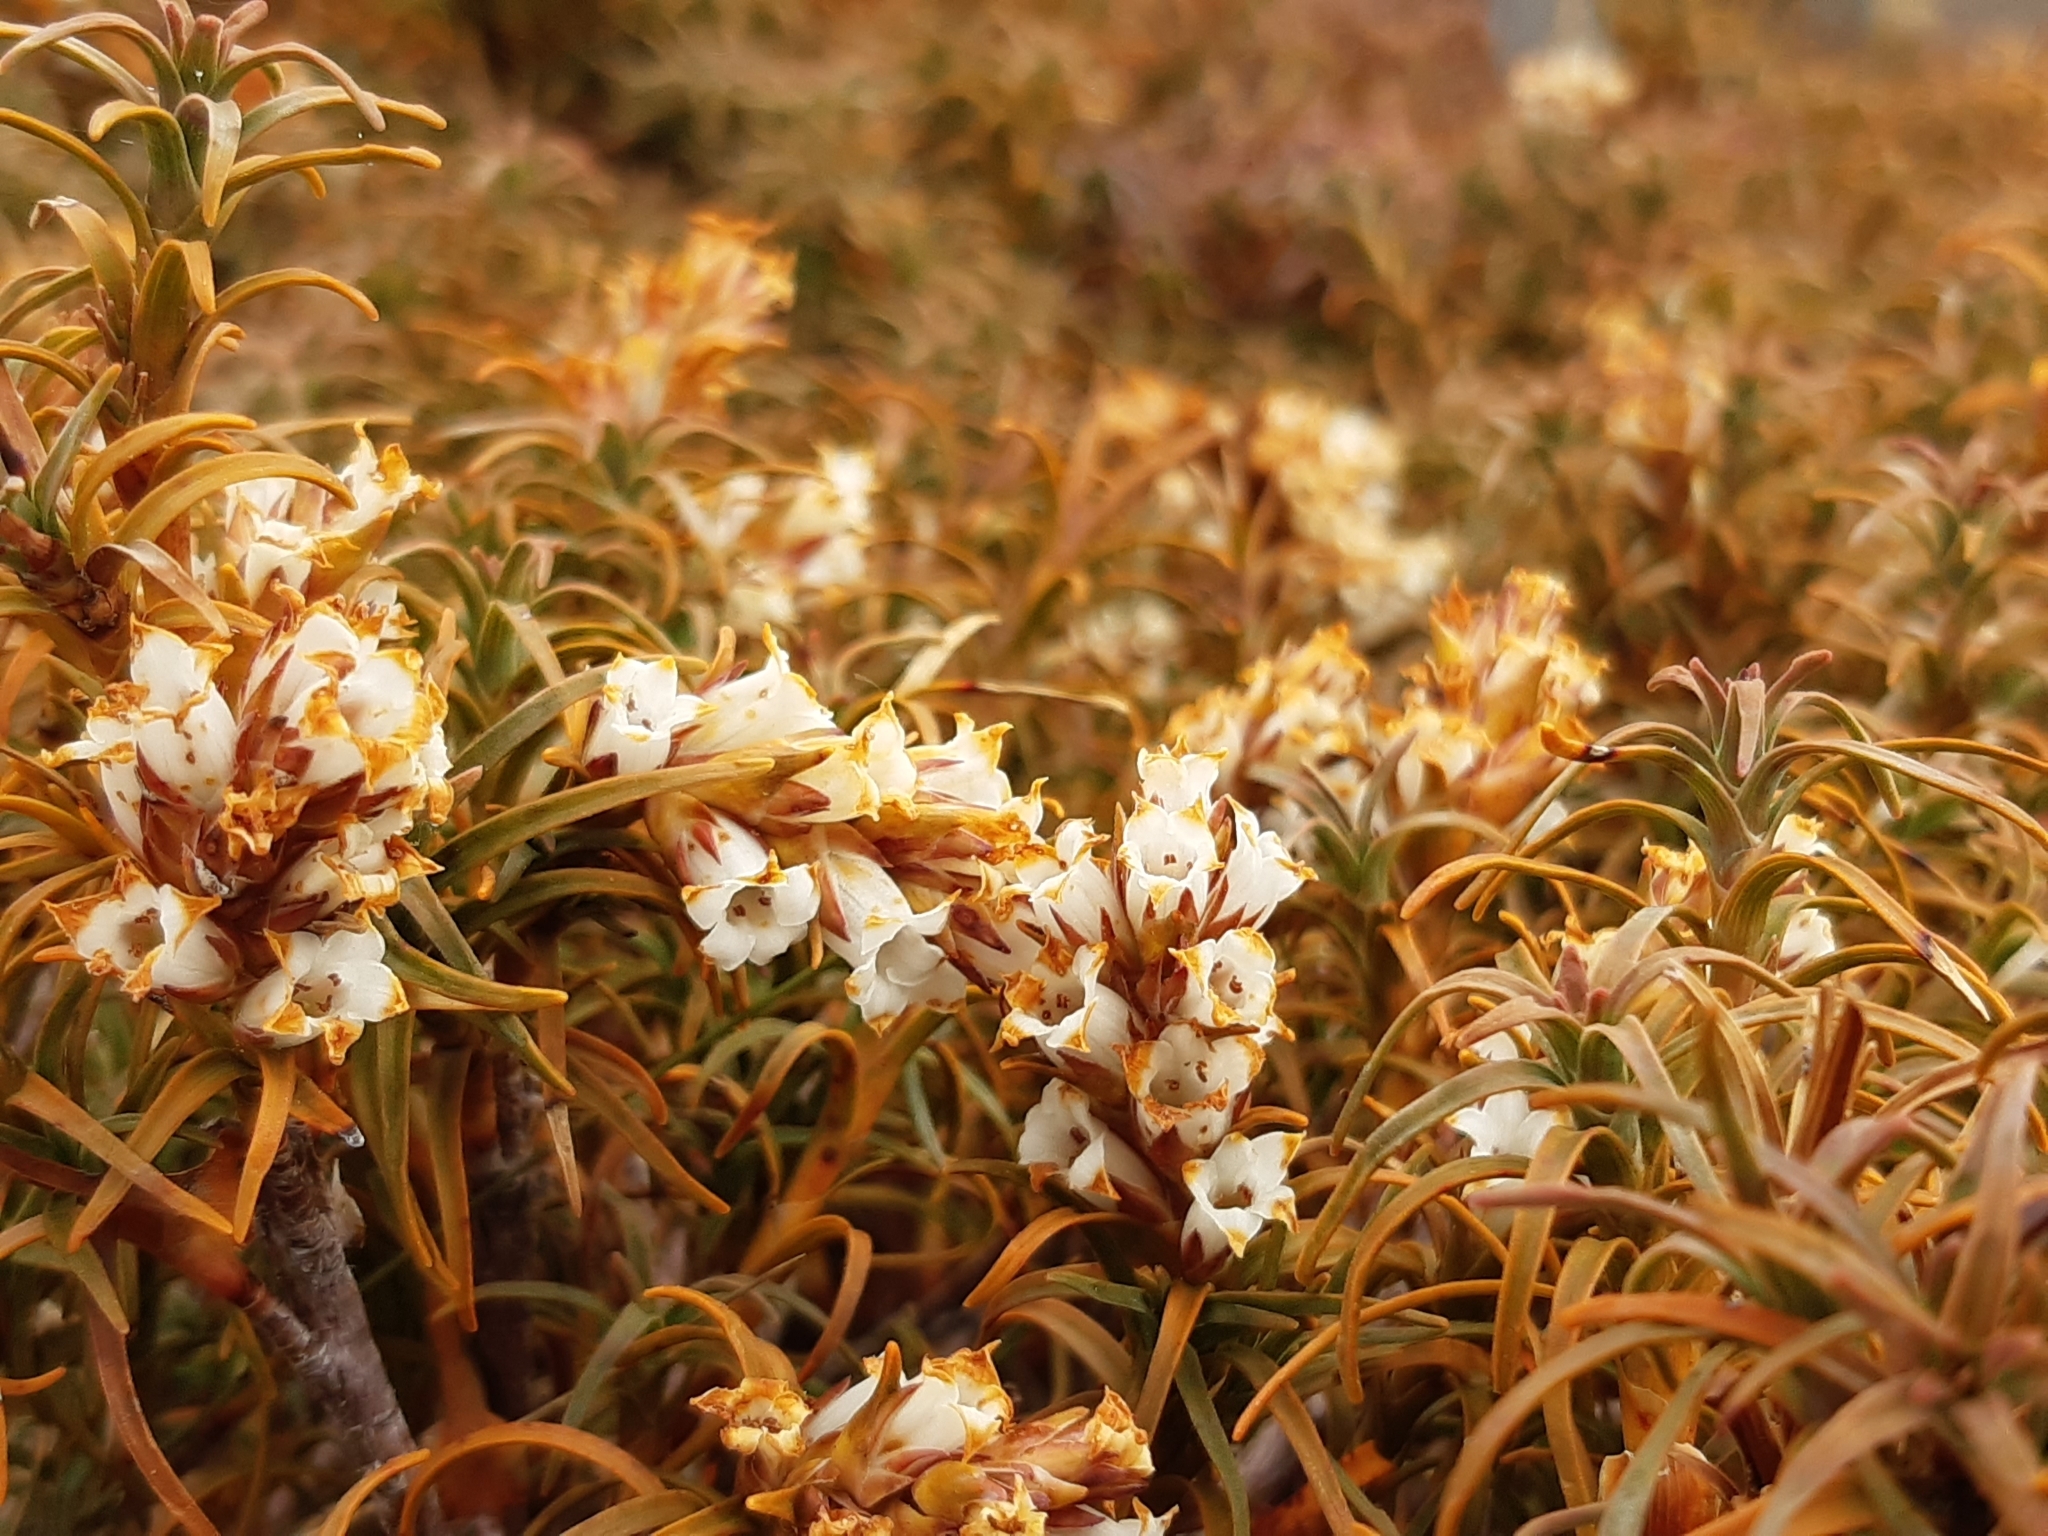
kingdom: Plantae
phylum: Tracheophyta
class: Magnoliopsida
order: Ericales
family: Ericaceae
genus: Dracophyllum
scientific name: Dracophyllum recurvum
